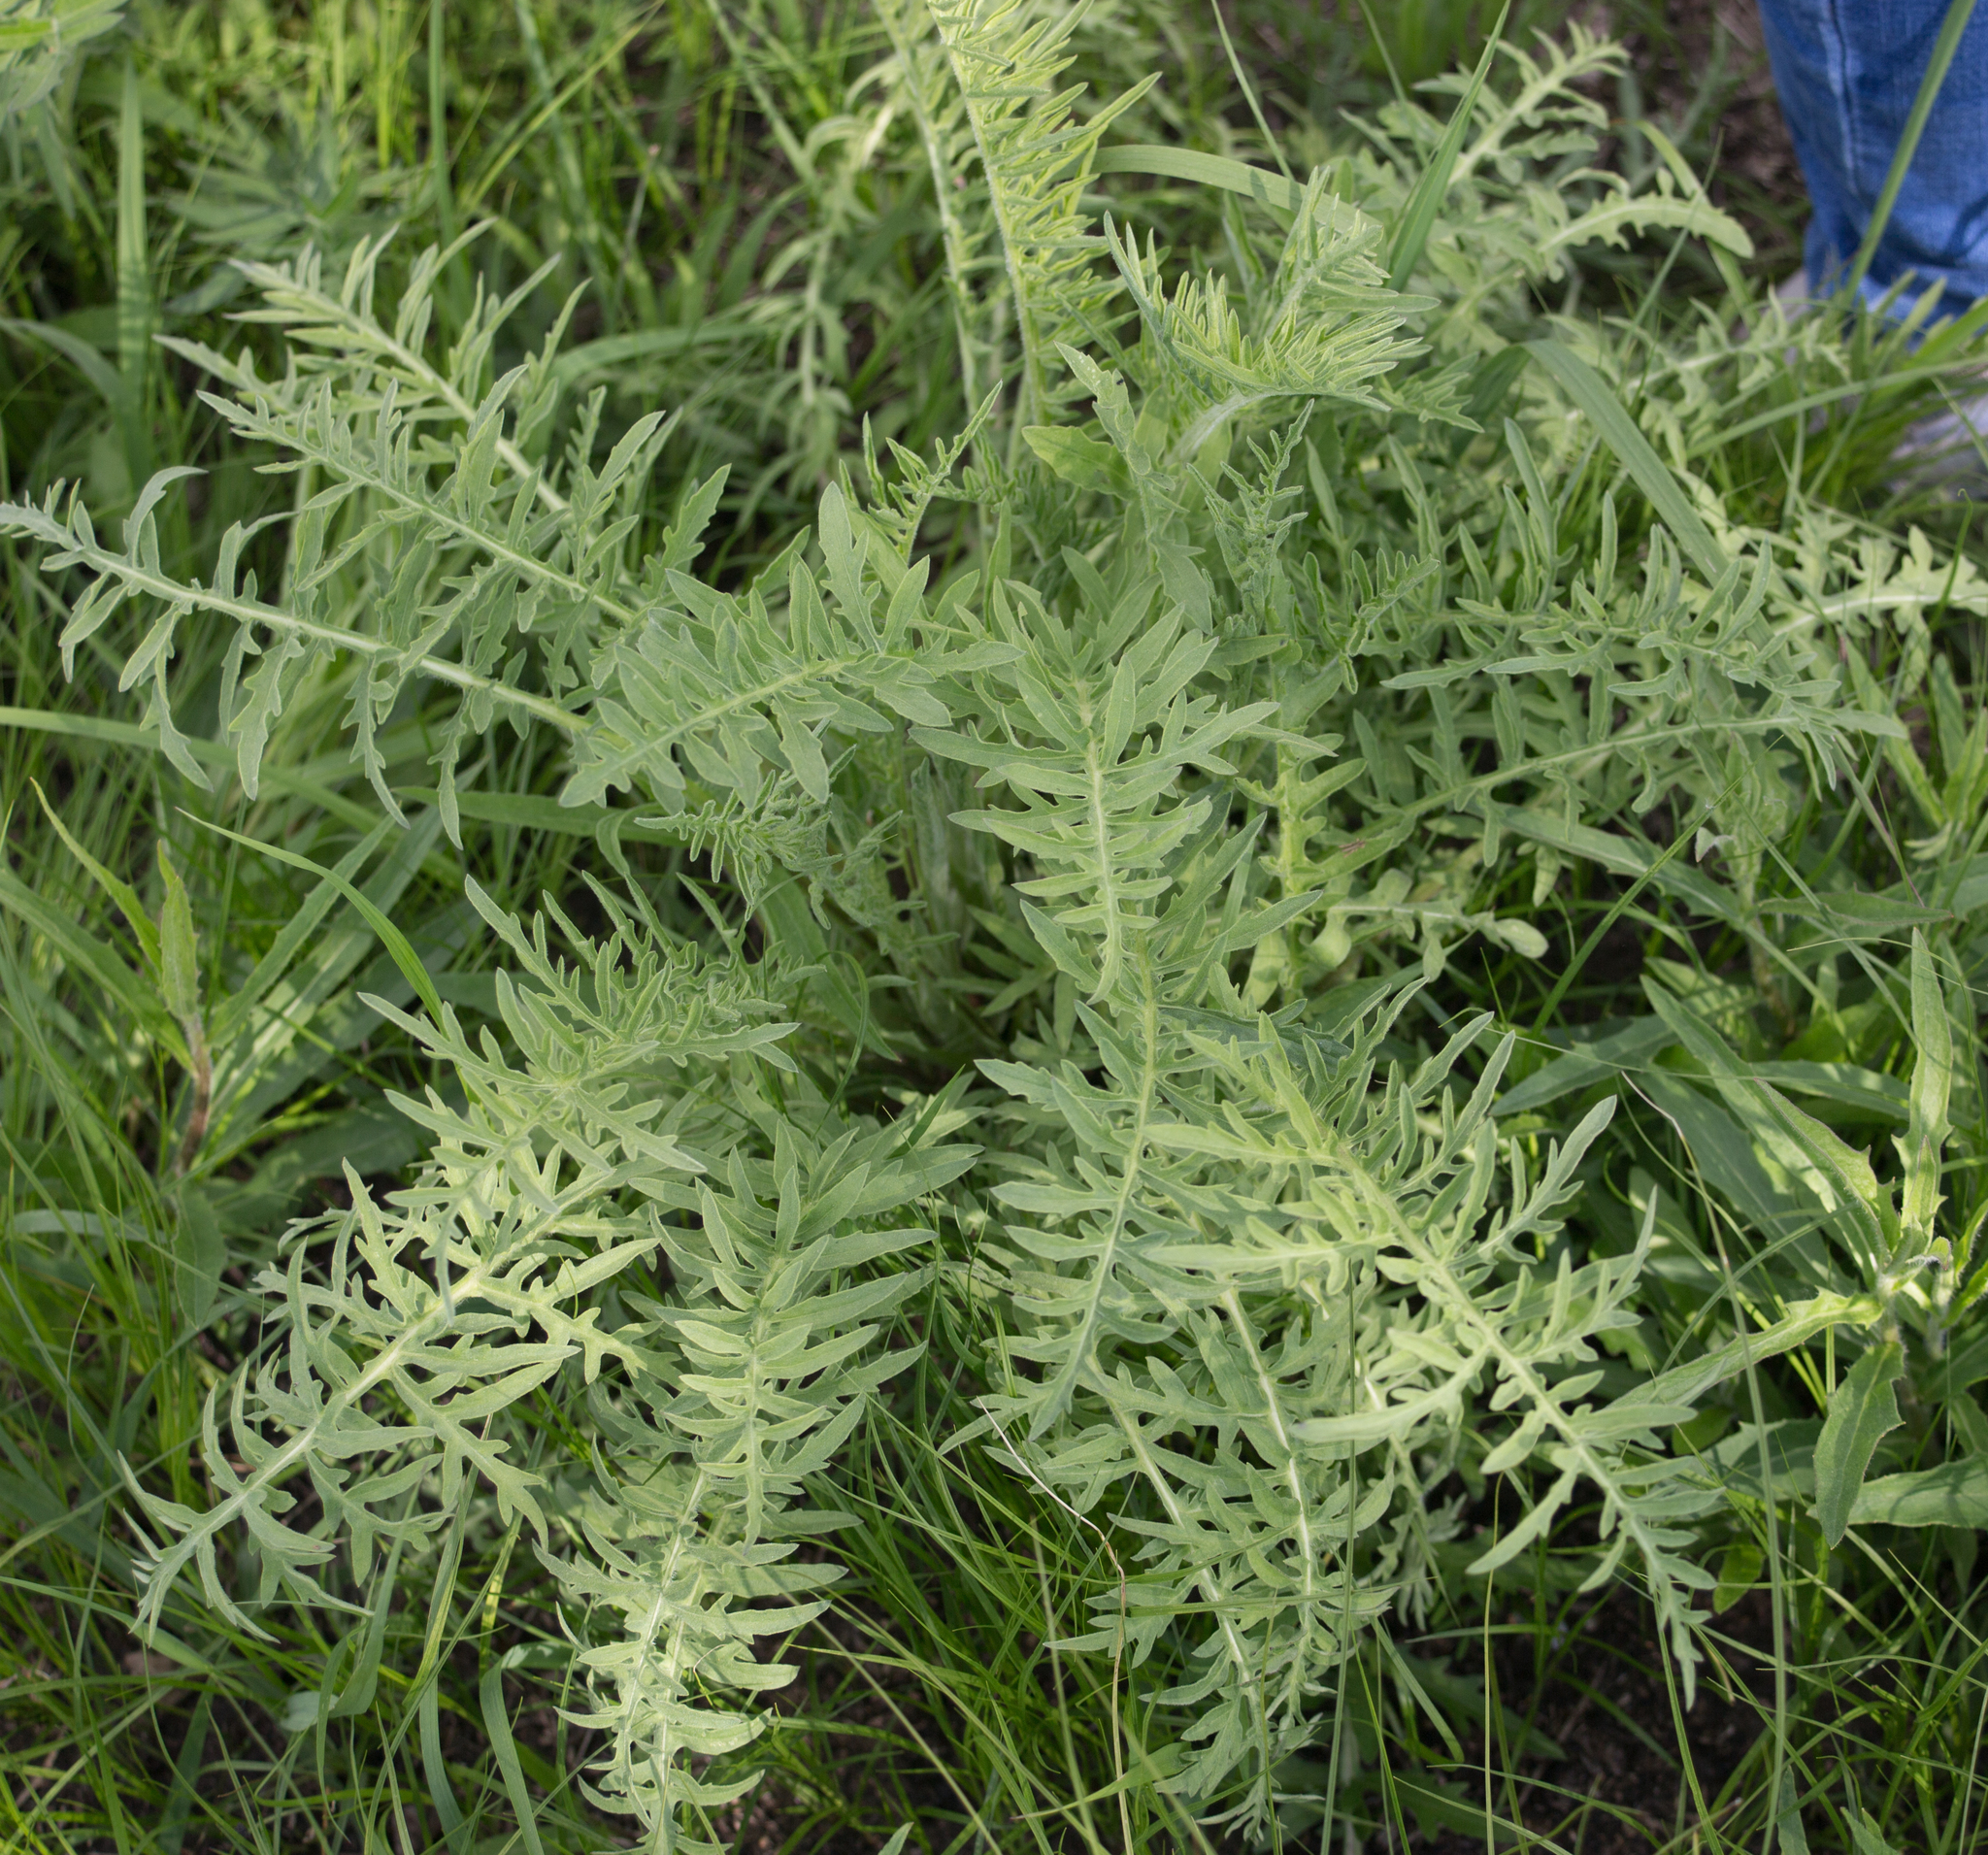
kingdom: Plantae
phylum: Tracheophyta
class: Magnoliopsida
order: Asterales
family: Asteraceae
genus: Centaurea
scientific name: Centaurea scabiosa
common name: Greater knapweed
